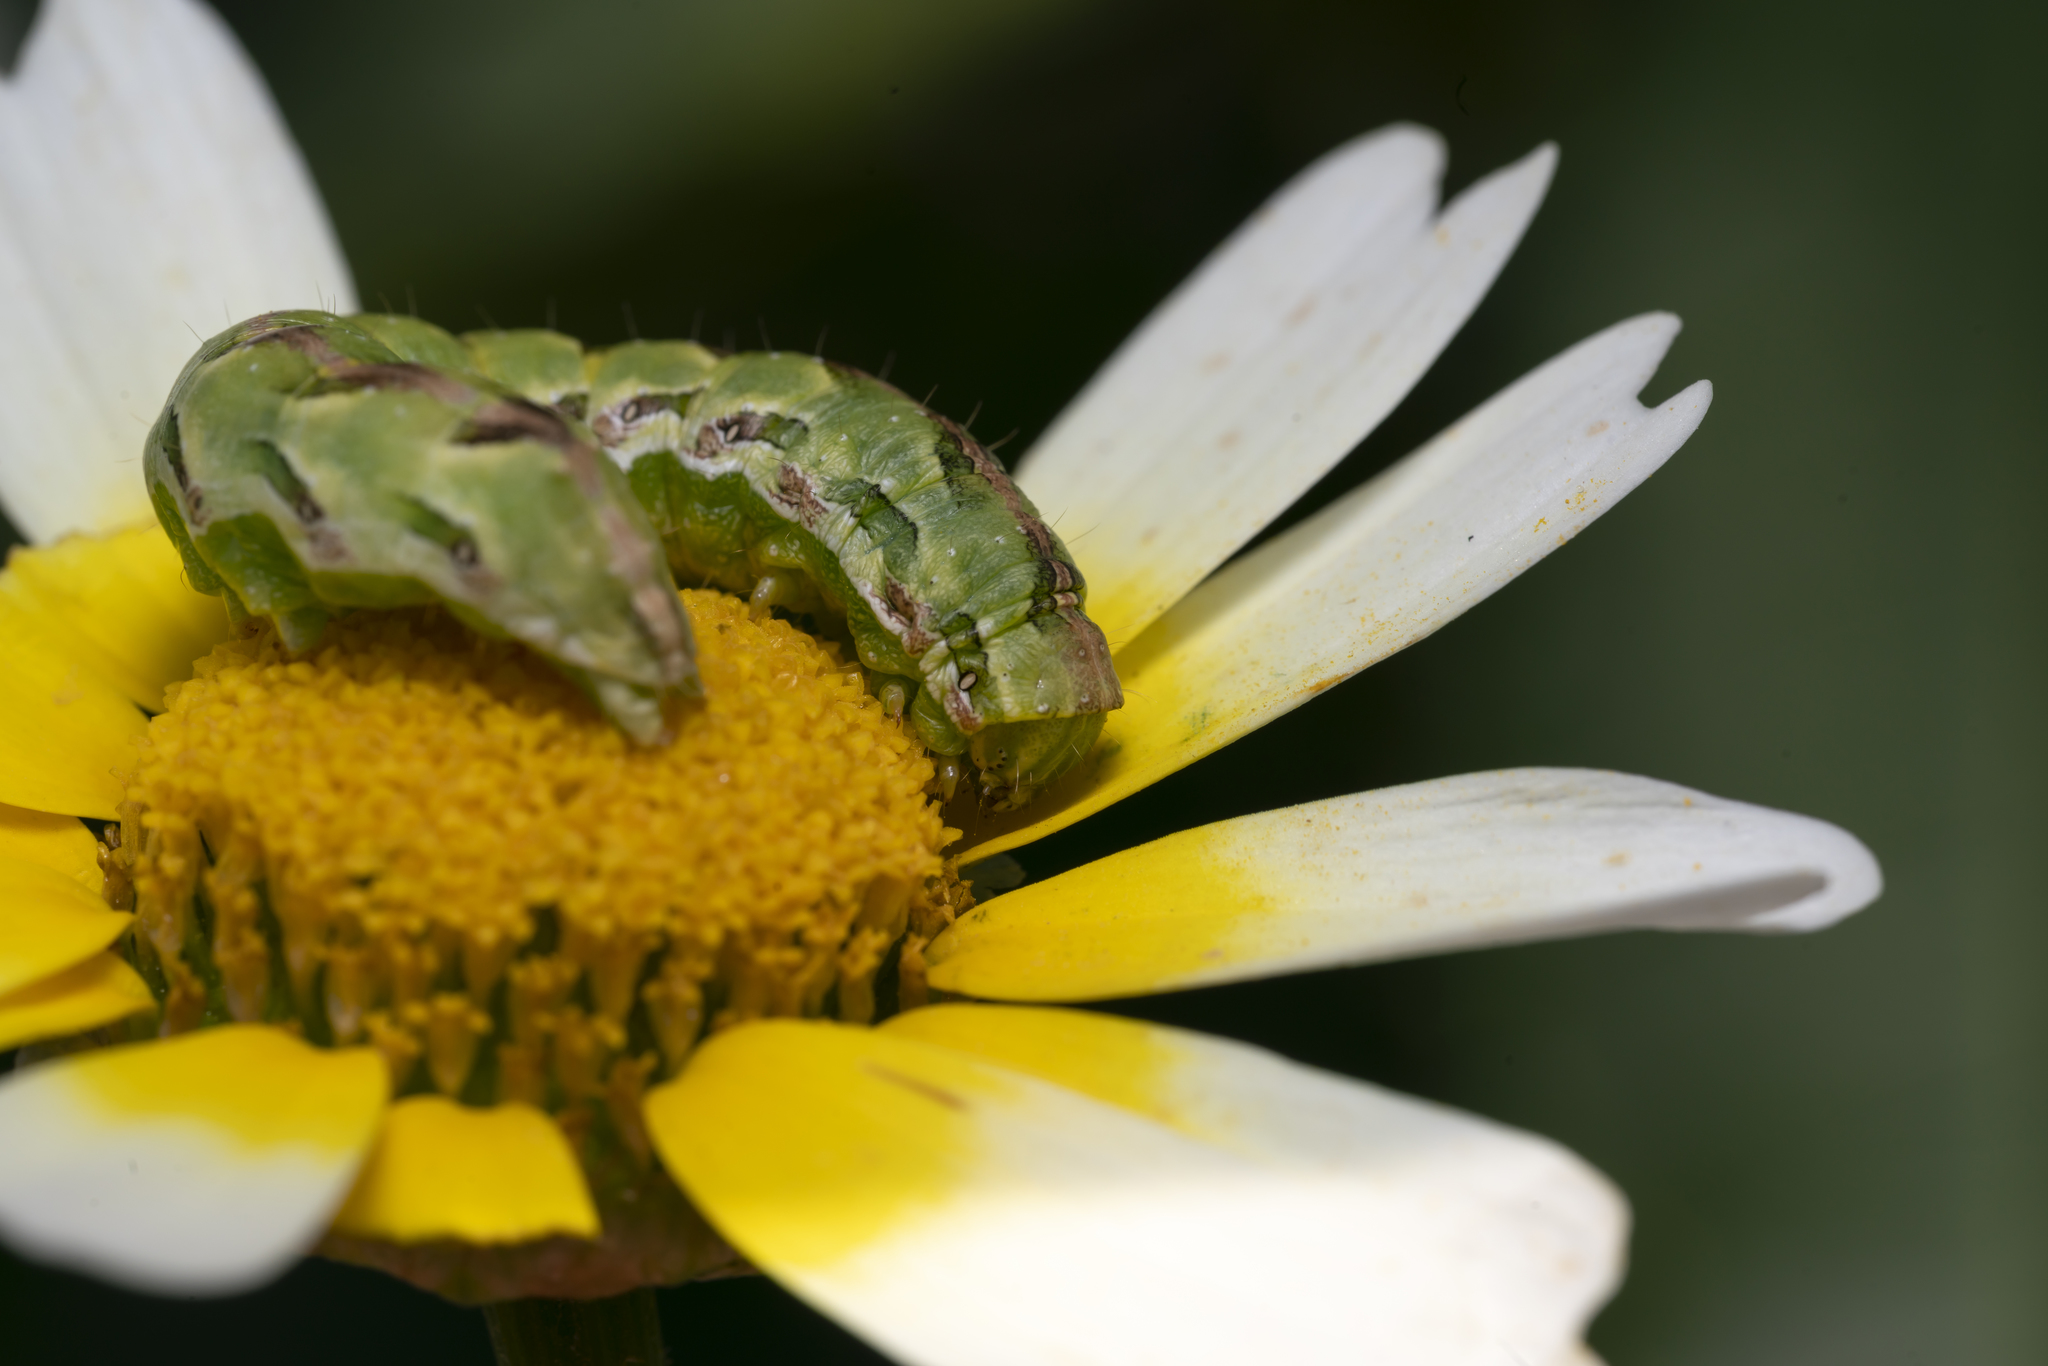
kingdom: Animalia
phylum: Arthropoda
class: Insecta
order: Lepidoptera
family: Noctuidae
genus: Cucullia
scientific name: Cucullia calendulae
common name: Marigold shark
